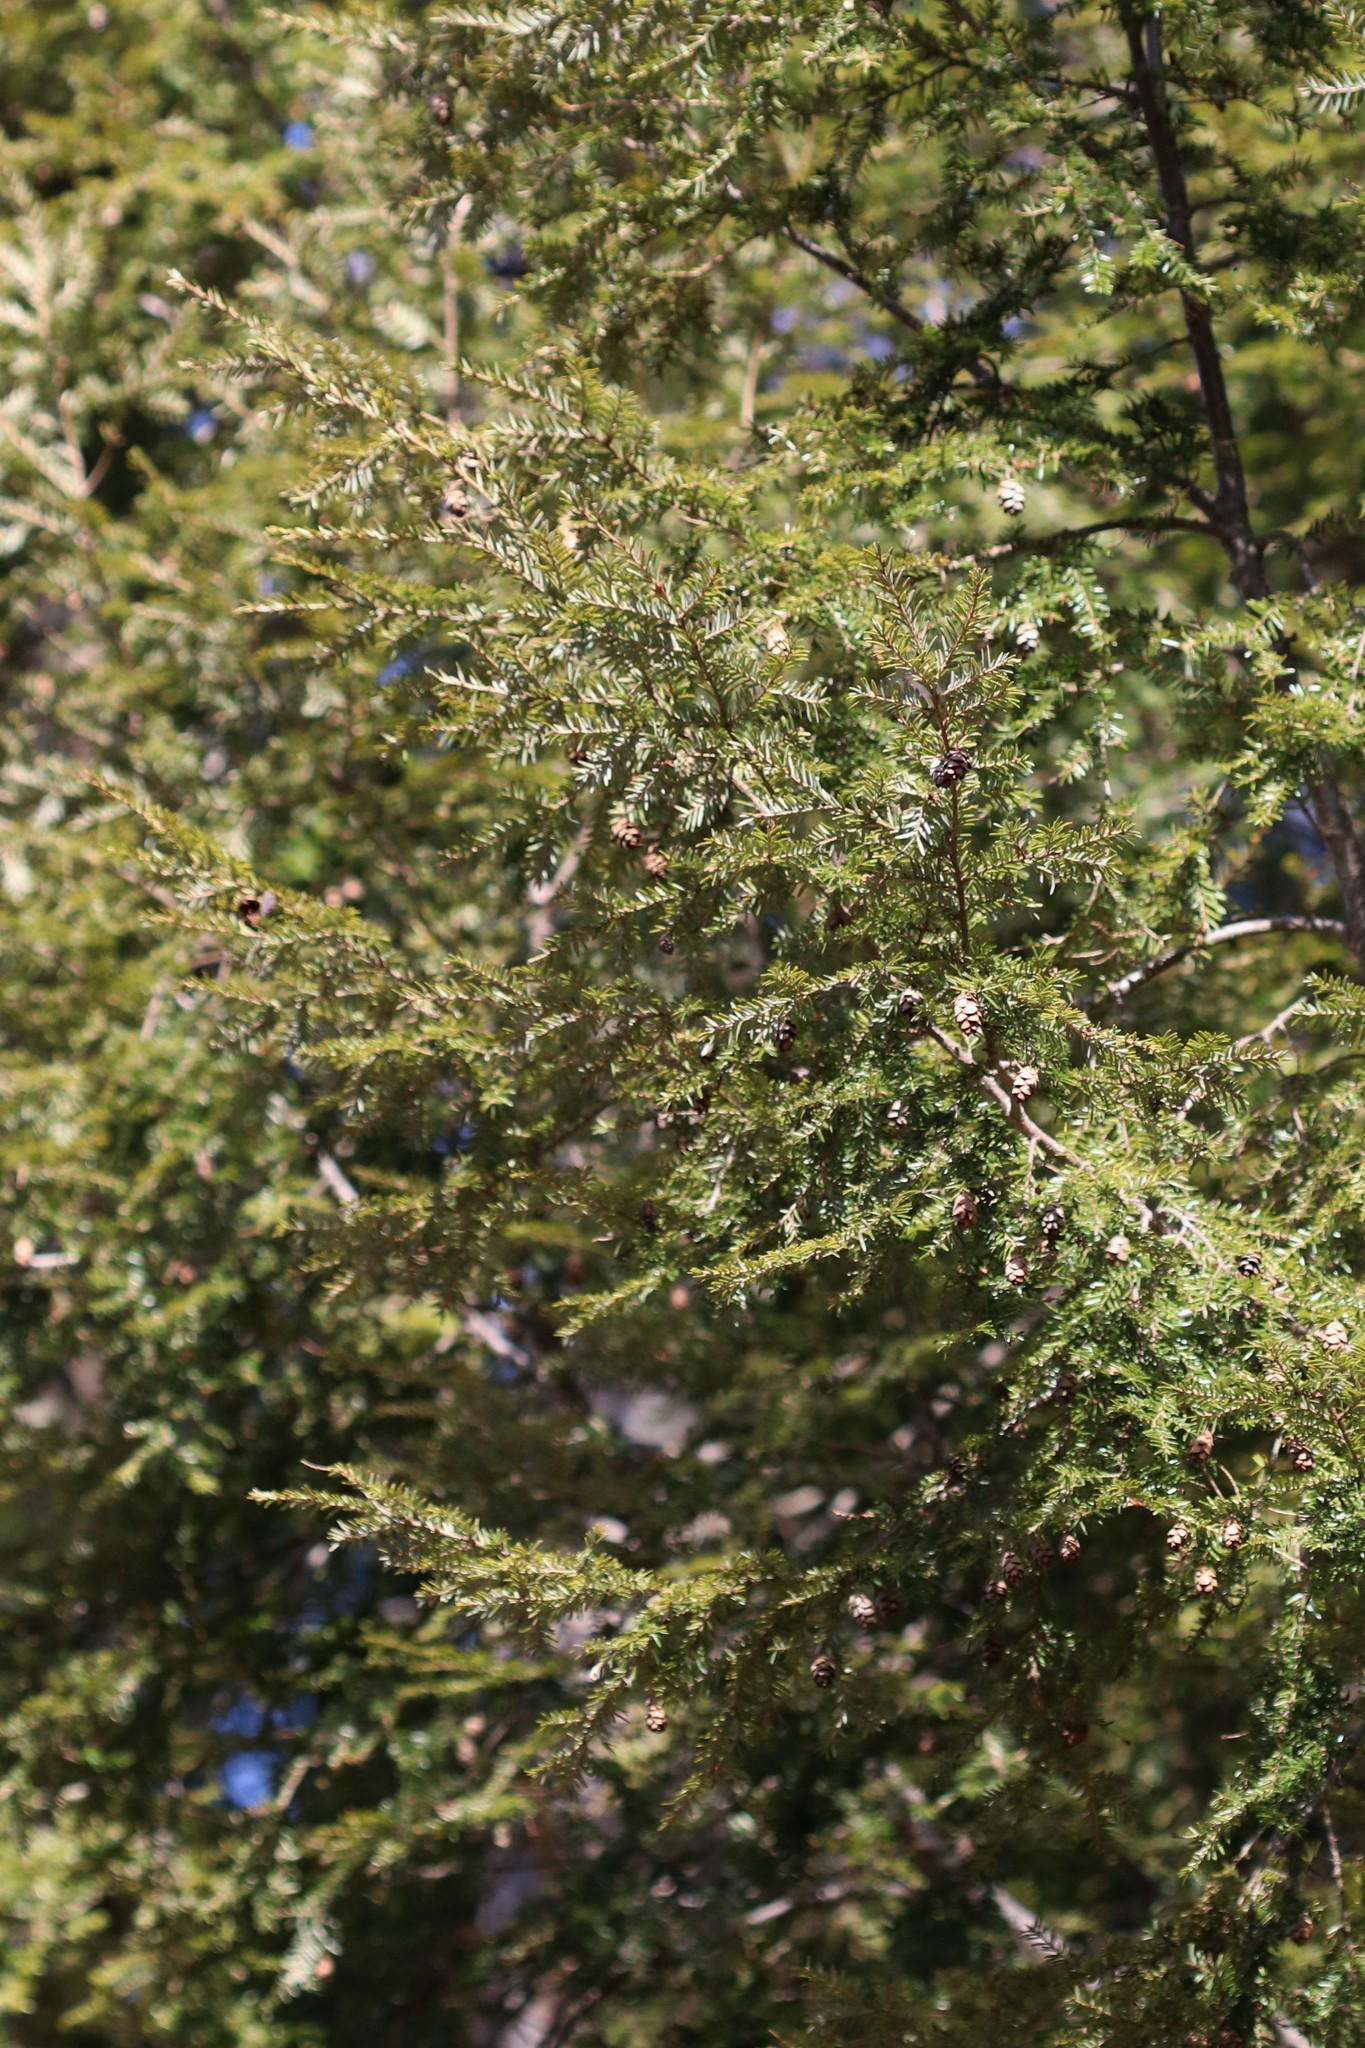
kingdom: Plantae
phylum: Tracheophyta
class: Pinopsida
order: Pinales
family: Pinaceae
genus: Tsuga
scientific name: Tsuga canadensis
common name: Eastern hemlock
